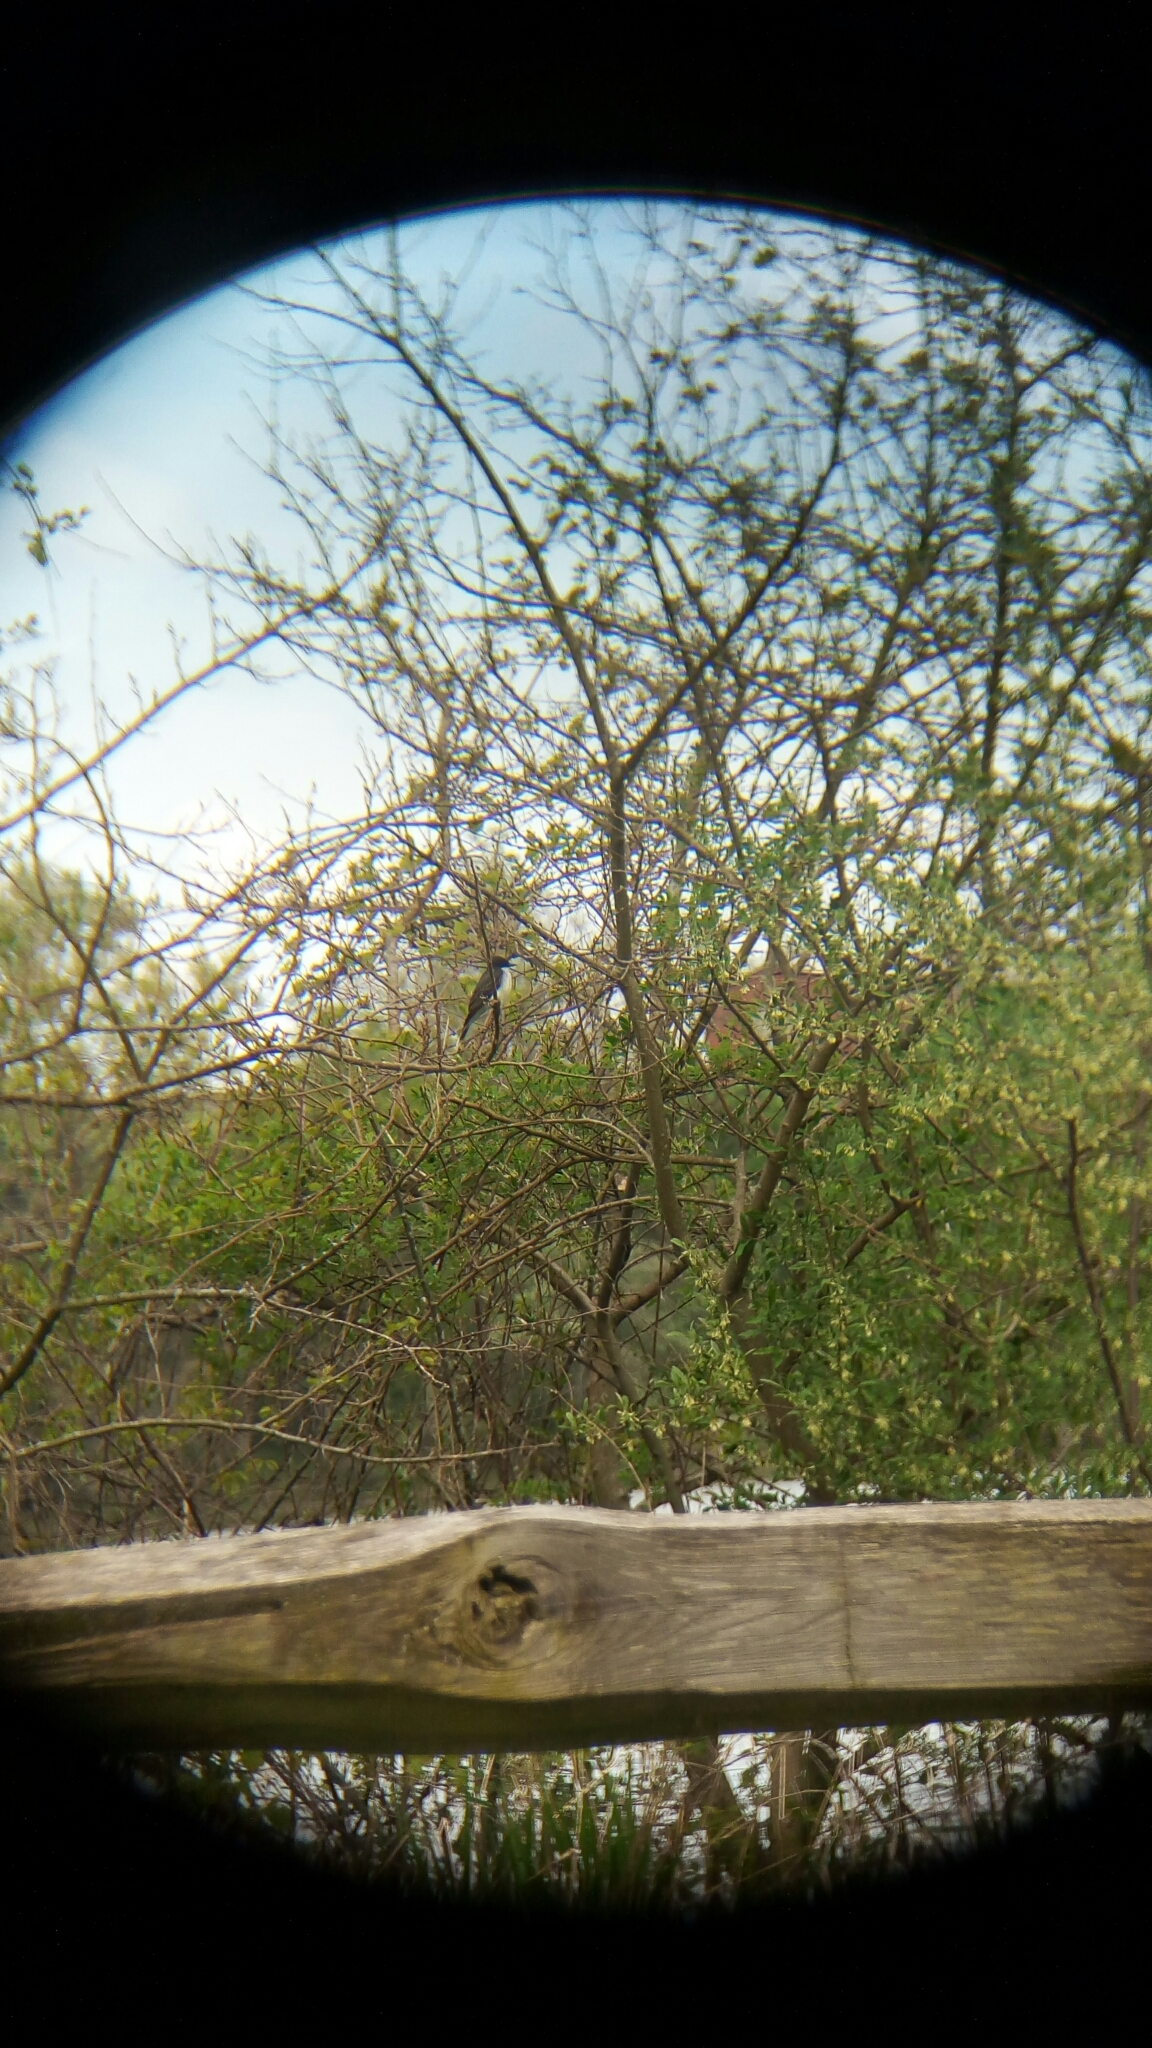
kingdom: Animalia
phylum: Chordata
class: Aves
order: Passeriformes
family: Tyrannidae
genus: Tyrannus
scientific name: Tyrannus tyrannus
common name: Eastern kingbird
